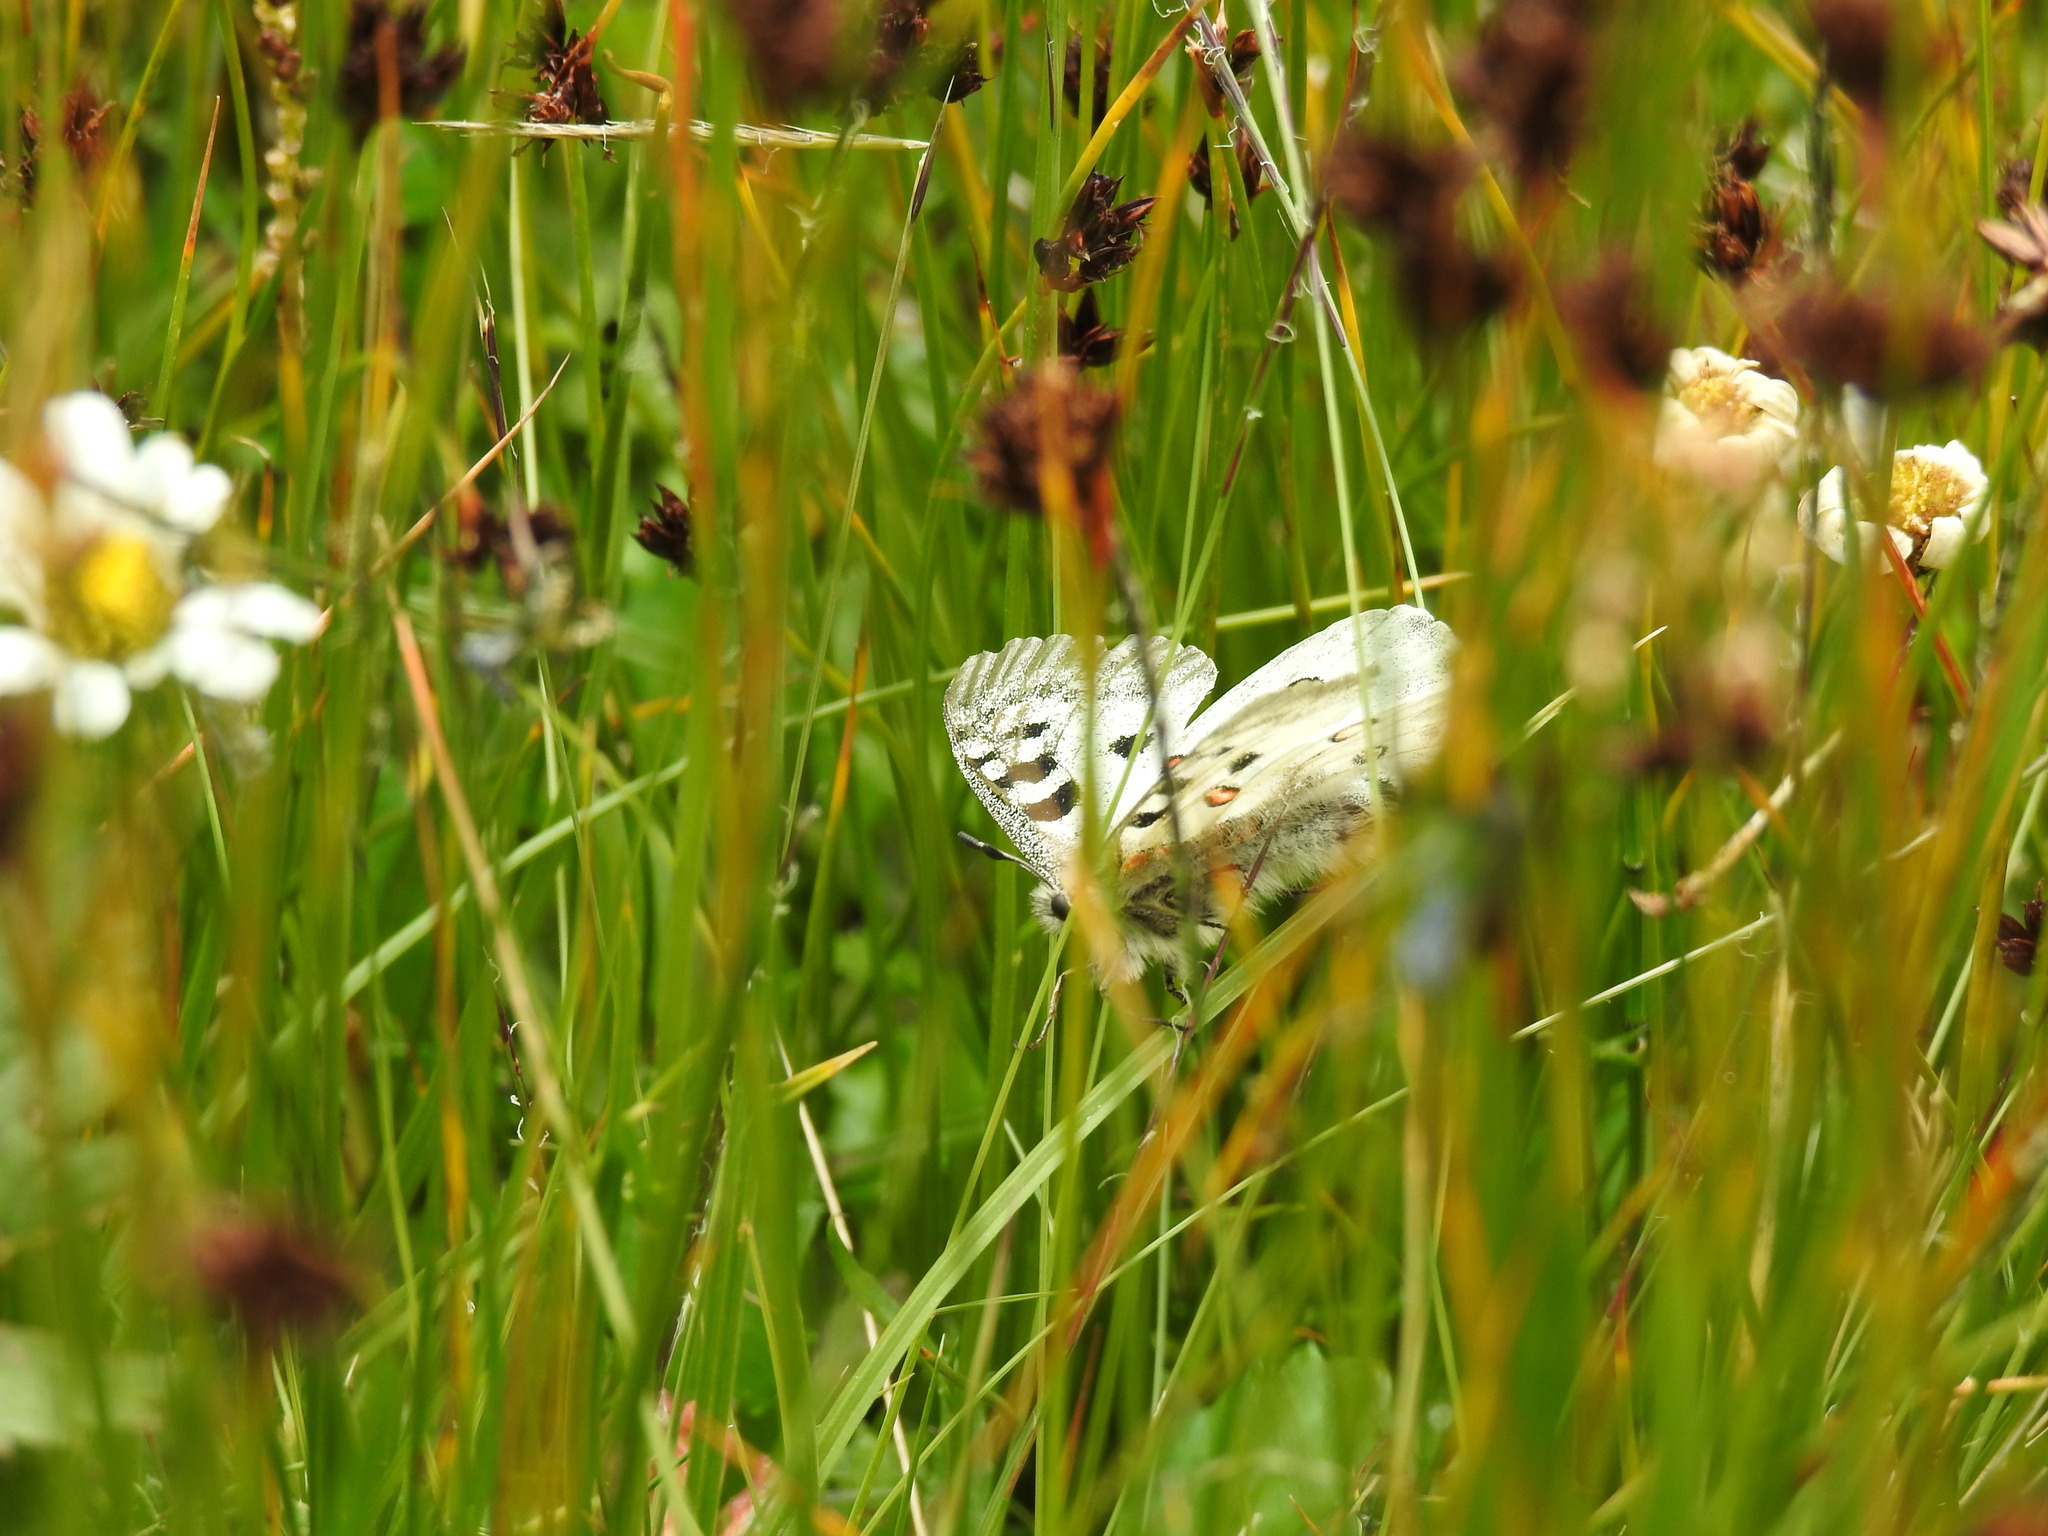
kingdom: Animalia
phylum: Arthropoda
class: Insecta
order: Lepidoptera
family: Papilionidae
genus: Parnassius
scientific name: Parnassius apollo
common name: Apollo
